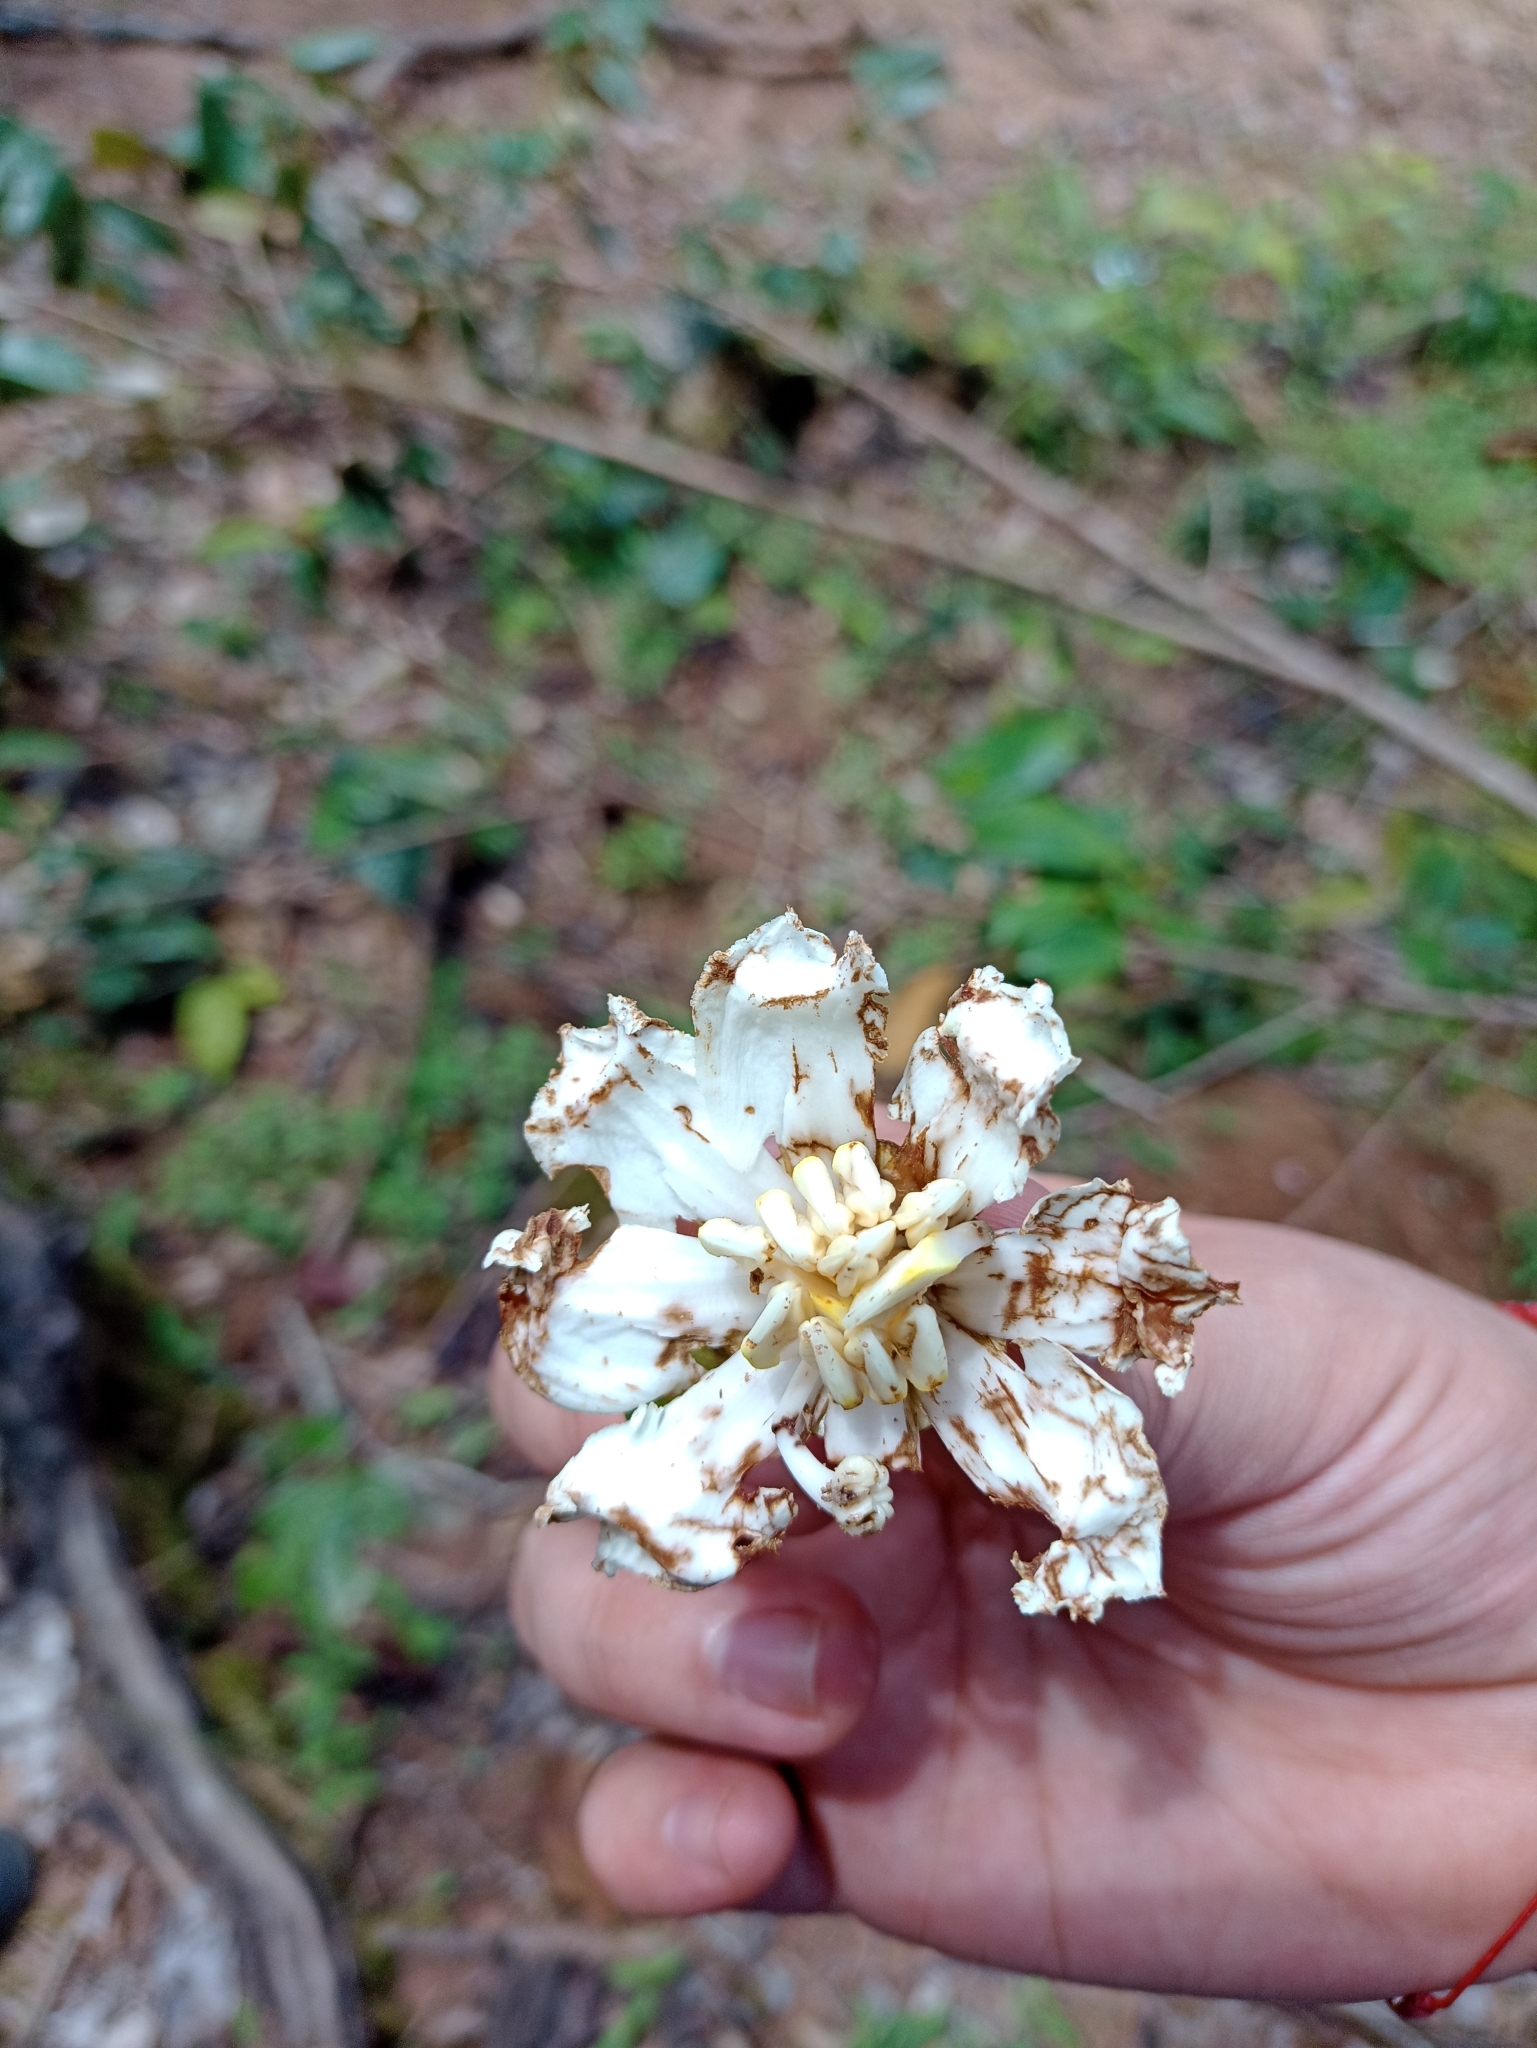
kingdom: Plantae
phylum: Tracheophyta
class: Magnoliopsida
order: Myrtales
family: Melastomataceae
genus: Bellucia
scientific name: Bellucia grossularioides
